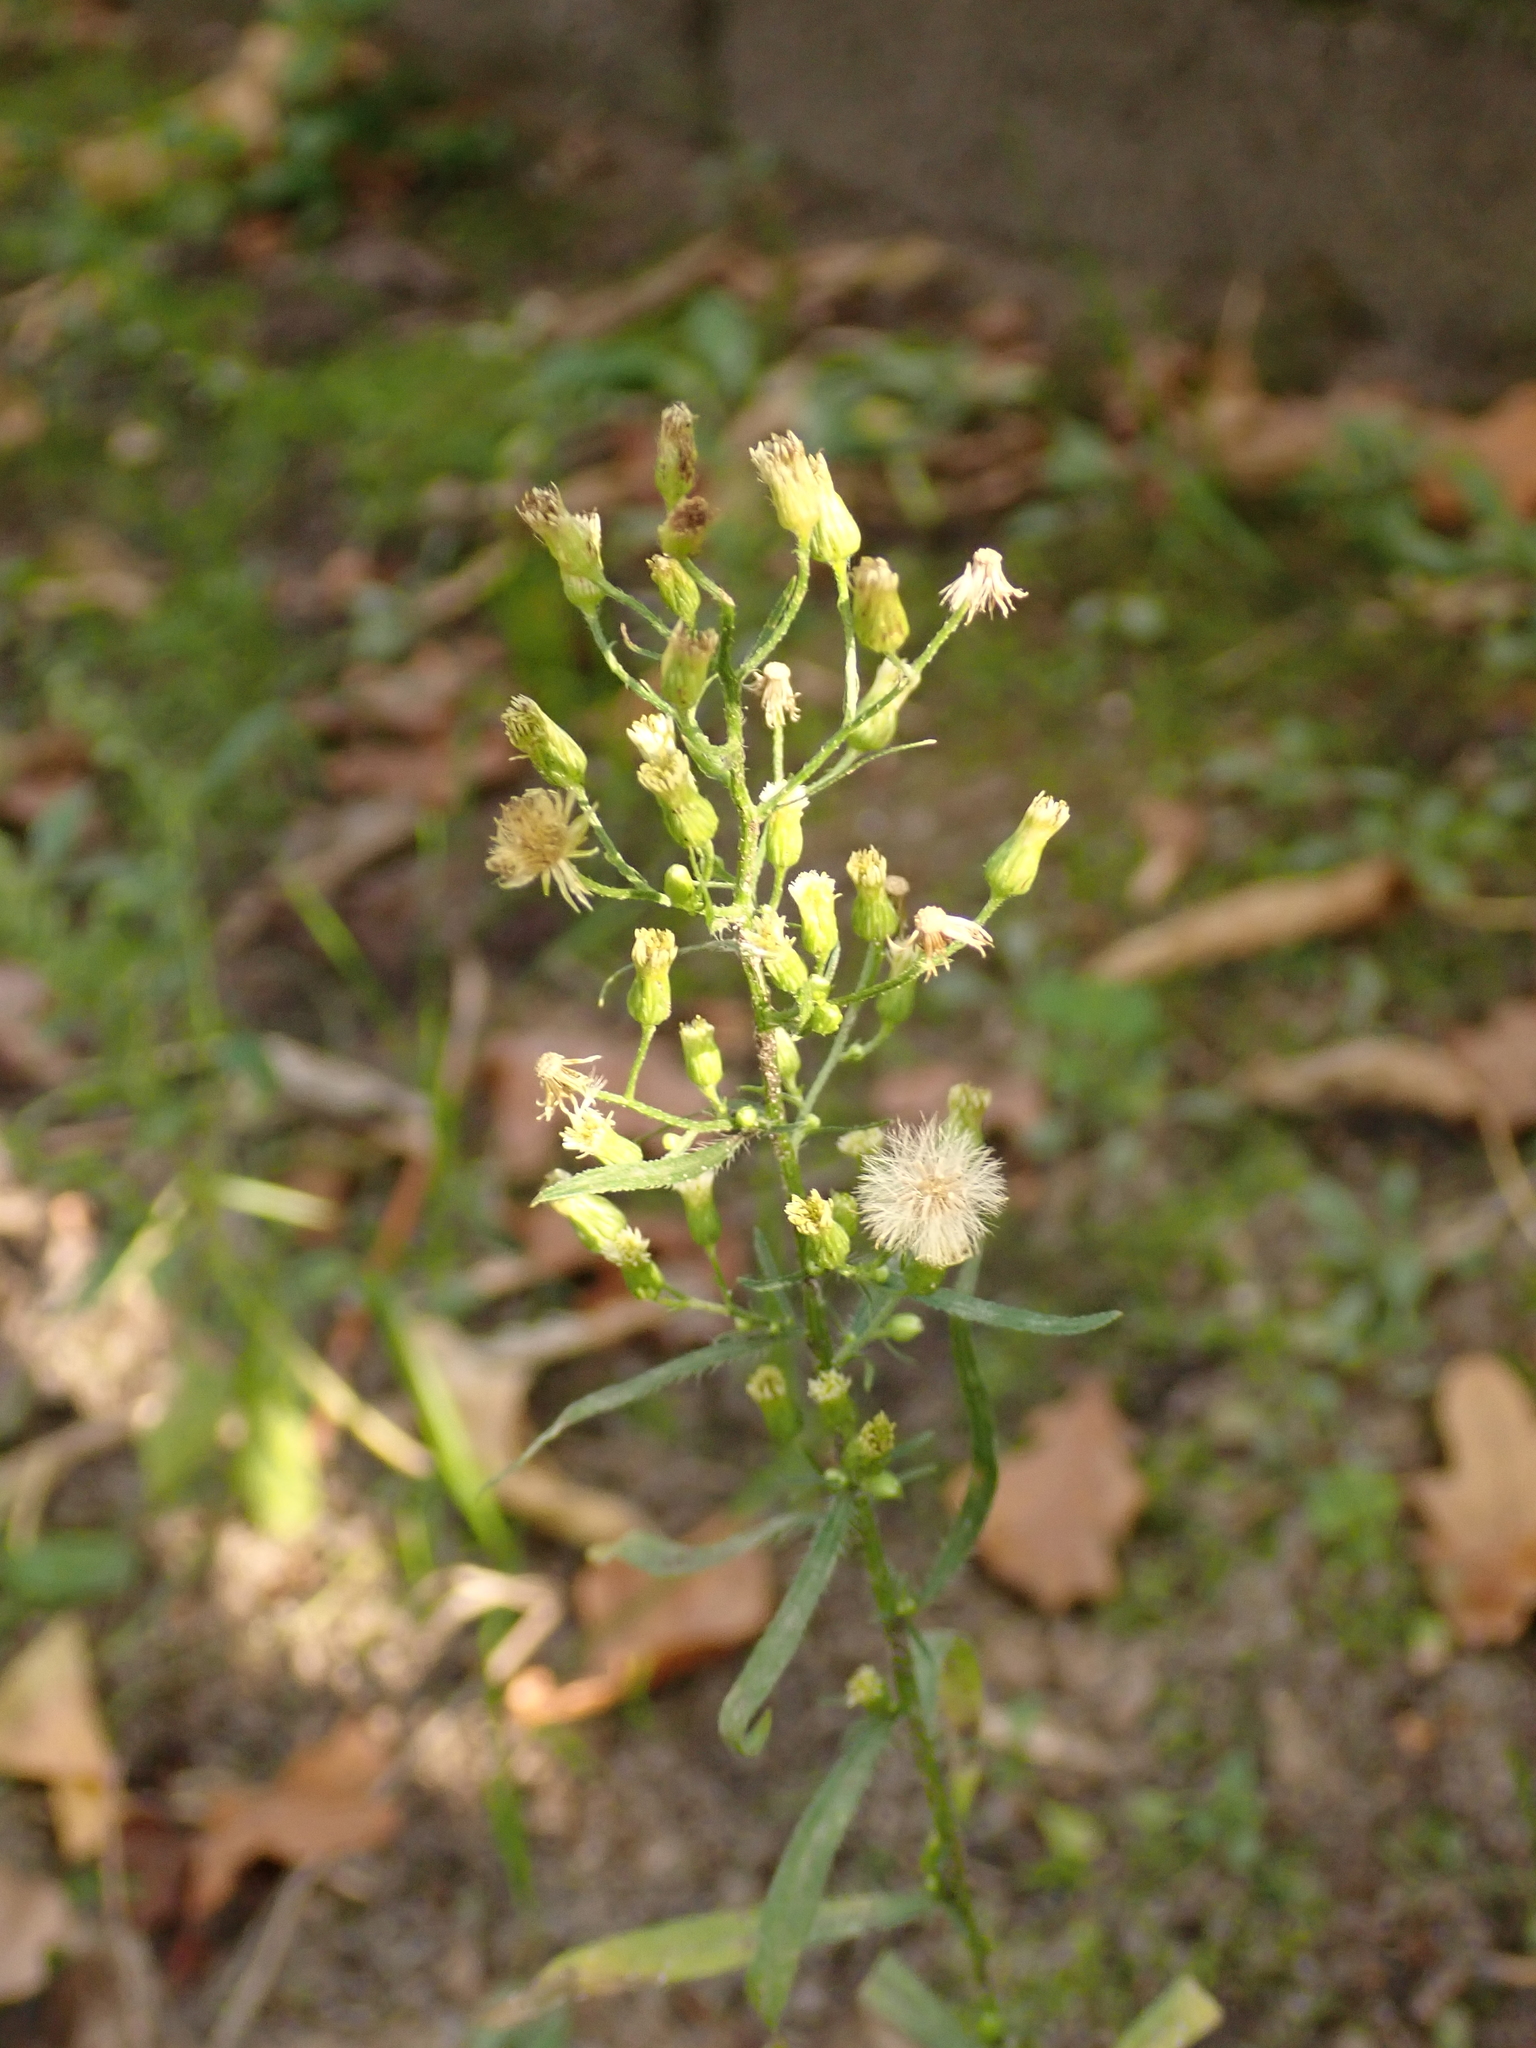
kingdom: Plantae
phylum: Tracheophyta
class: Magnoliopsida
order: Asterales
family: Asteraceae
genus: Erigeron
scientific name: Erigeron canadensis
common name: Canadian fleabane
